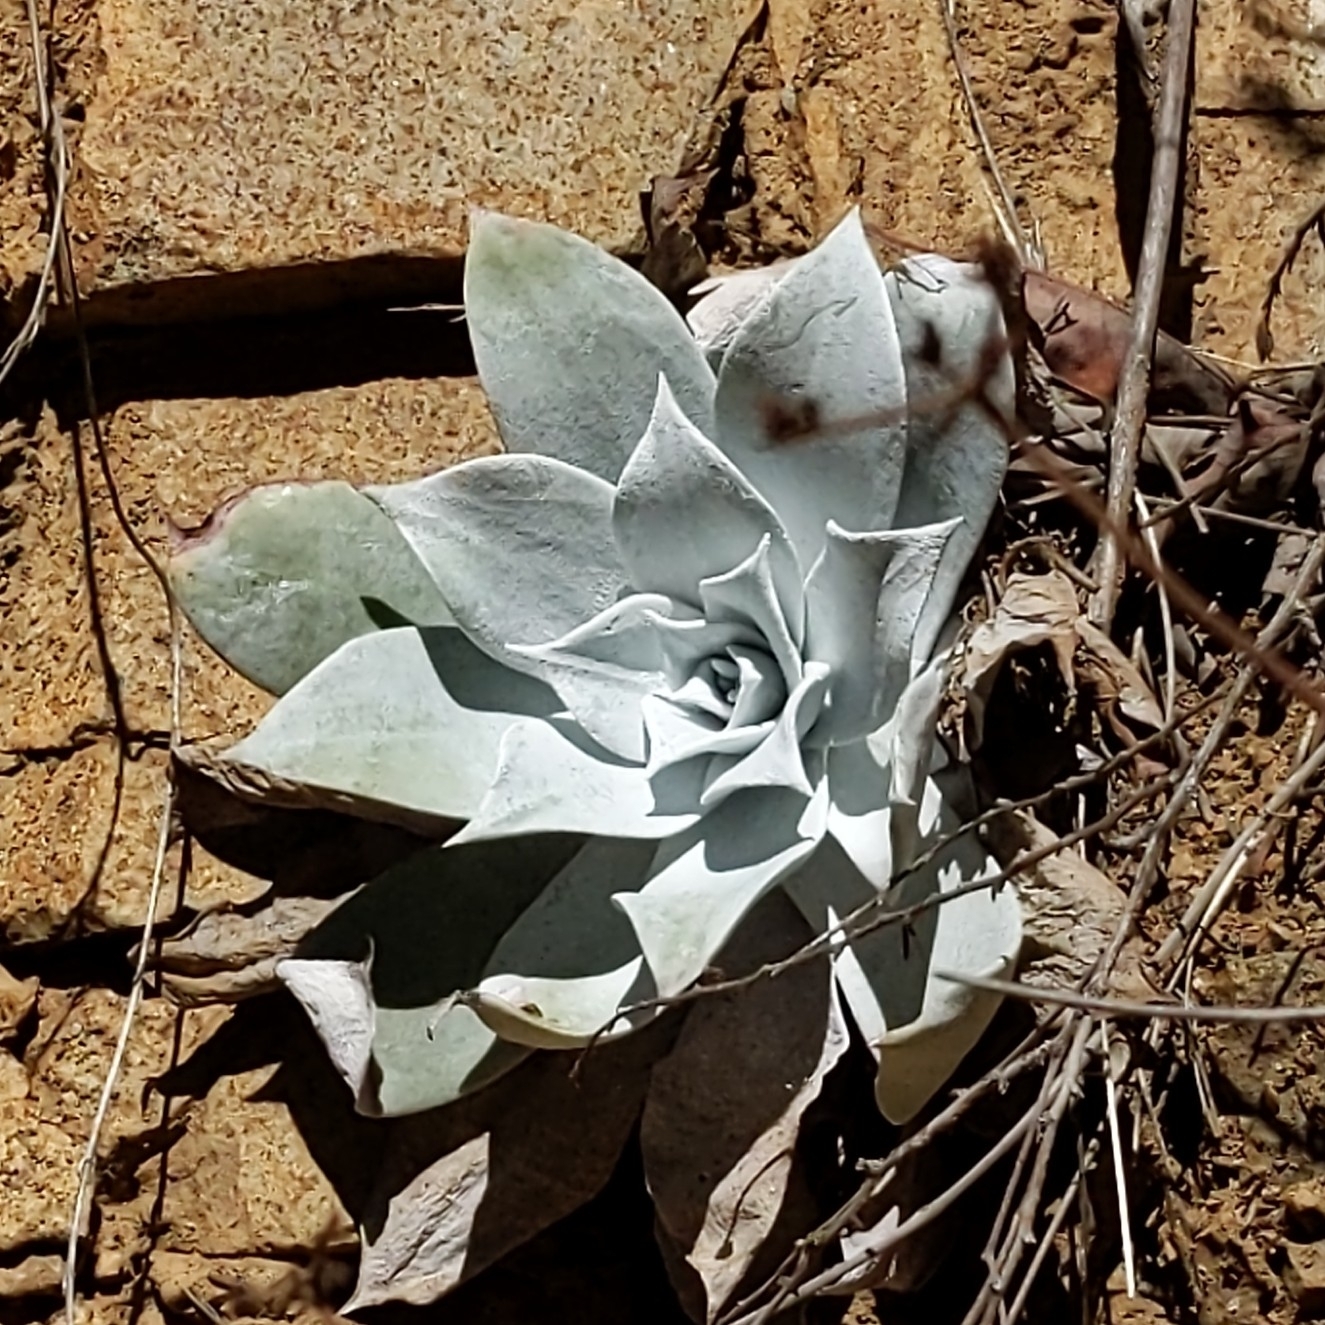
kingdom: Plantae
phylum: Tracheophyta
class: Magnoliopsida
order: Saxifragales
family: Crassulaceae
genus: Dudleya
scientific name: Dudleya pulverulenta
